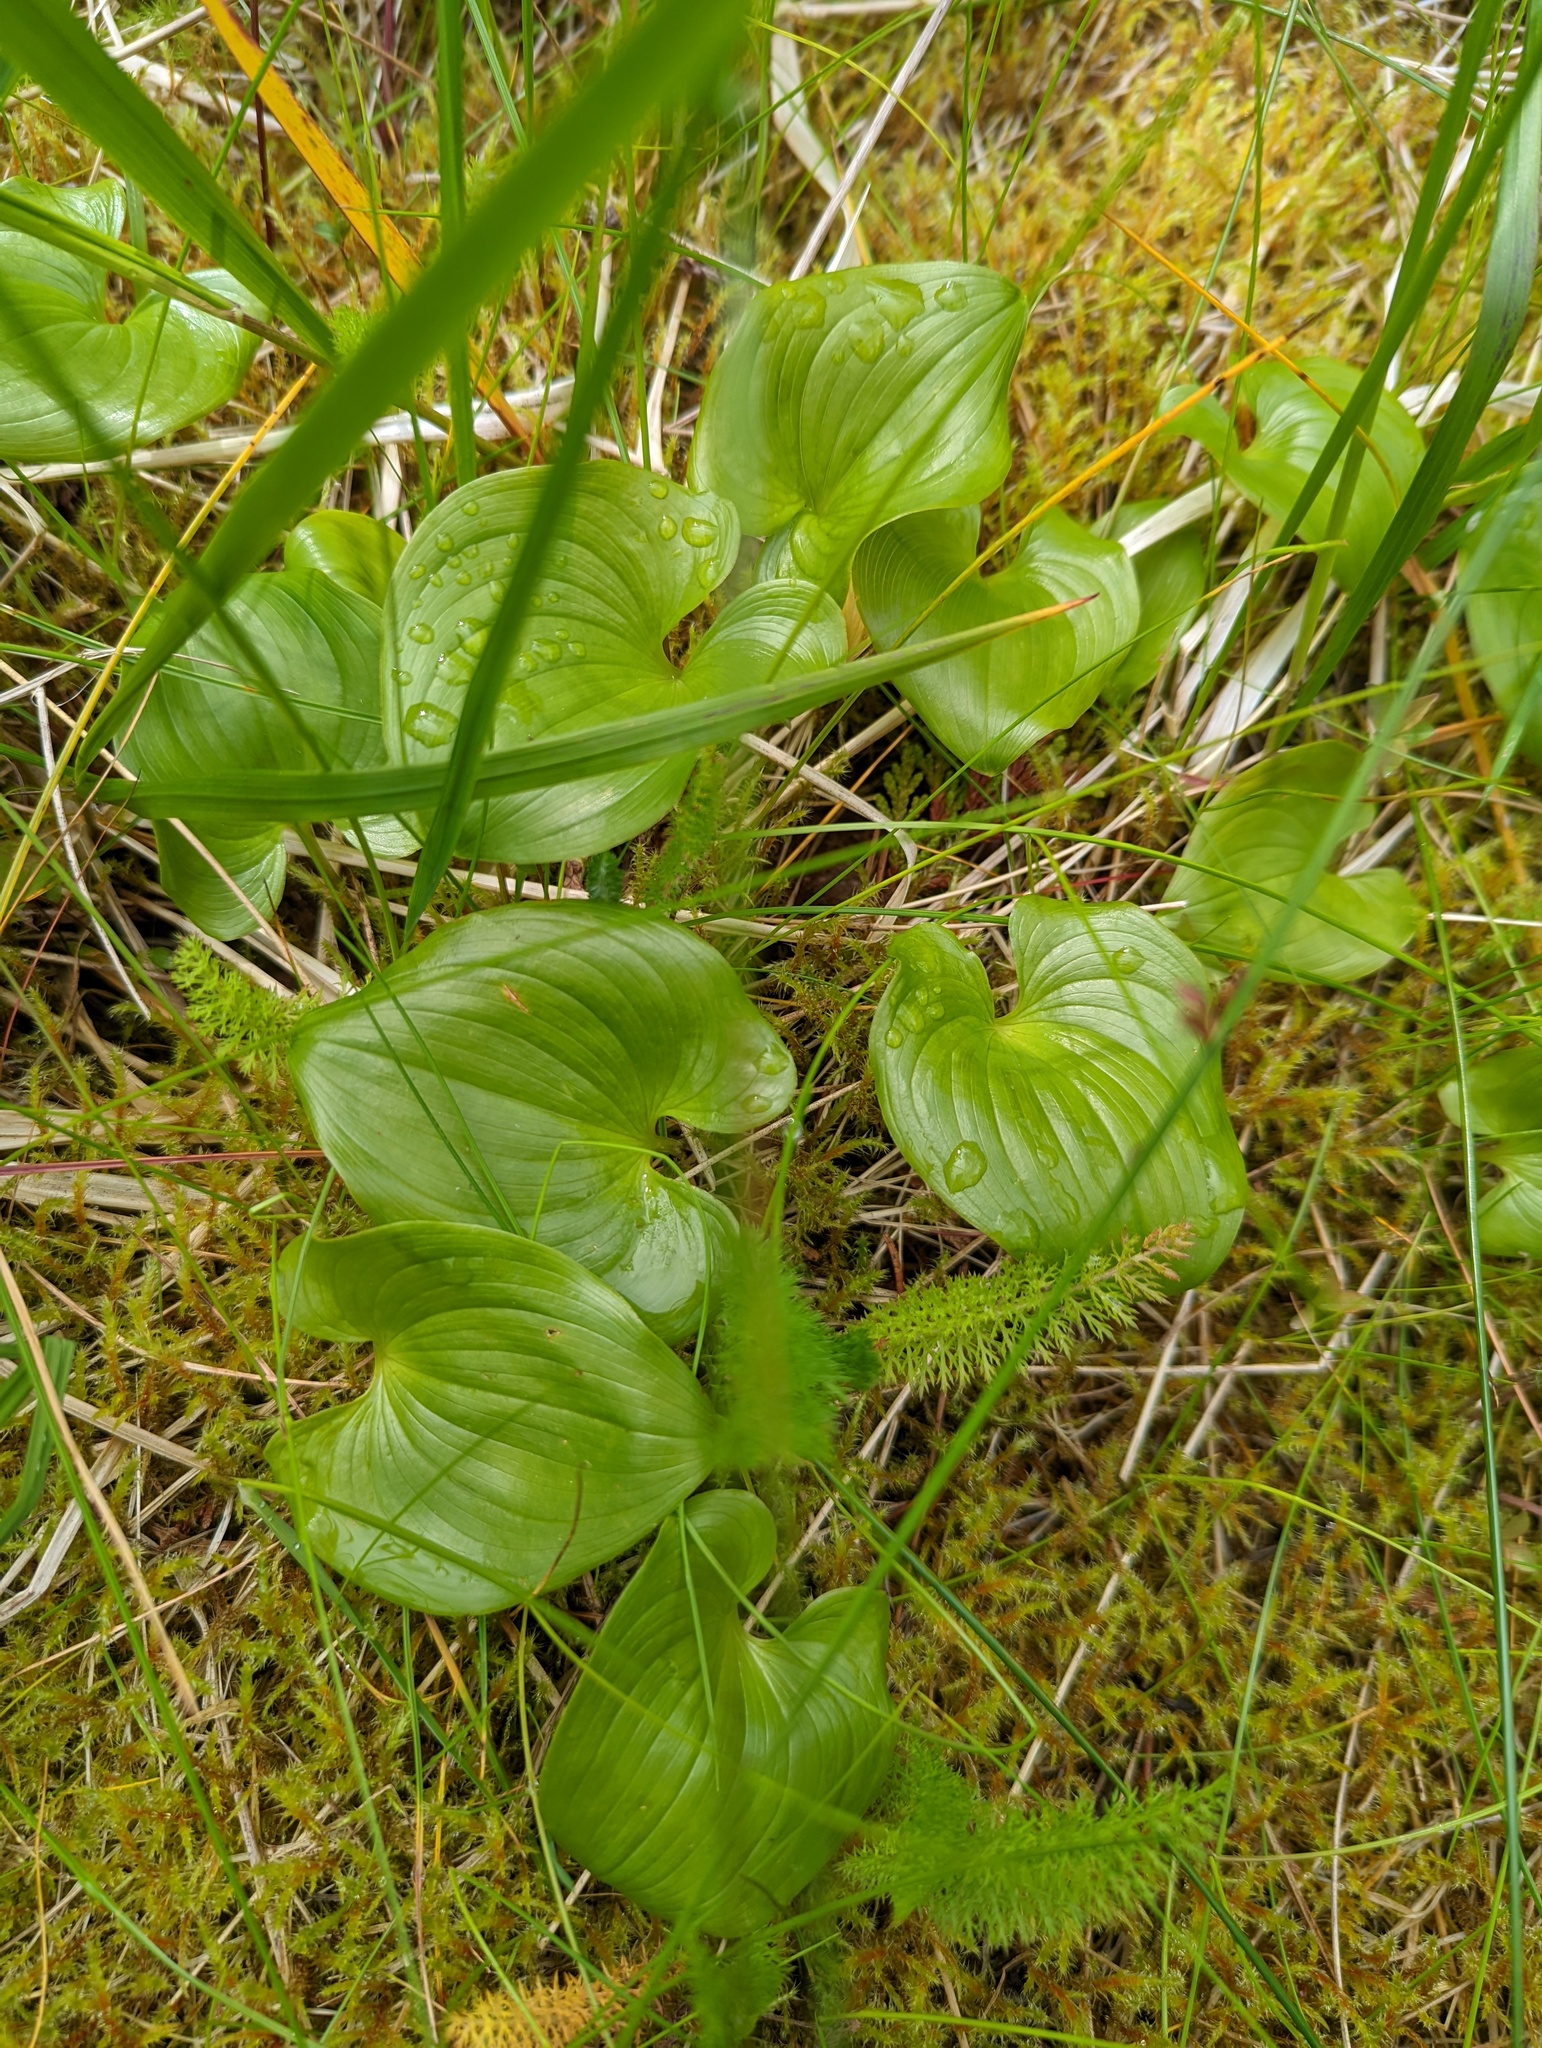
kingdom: Plantae
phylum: Tracheophyta
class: Liliopsida
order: Asparagales
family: Asparagaceae
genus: Maianthemum
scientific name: Maianthemum dilatatum
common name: False lily-of-the-valley
